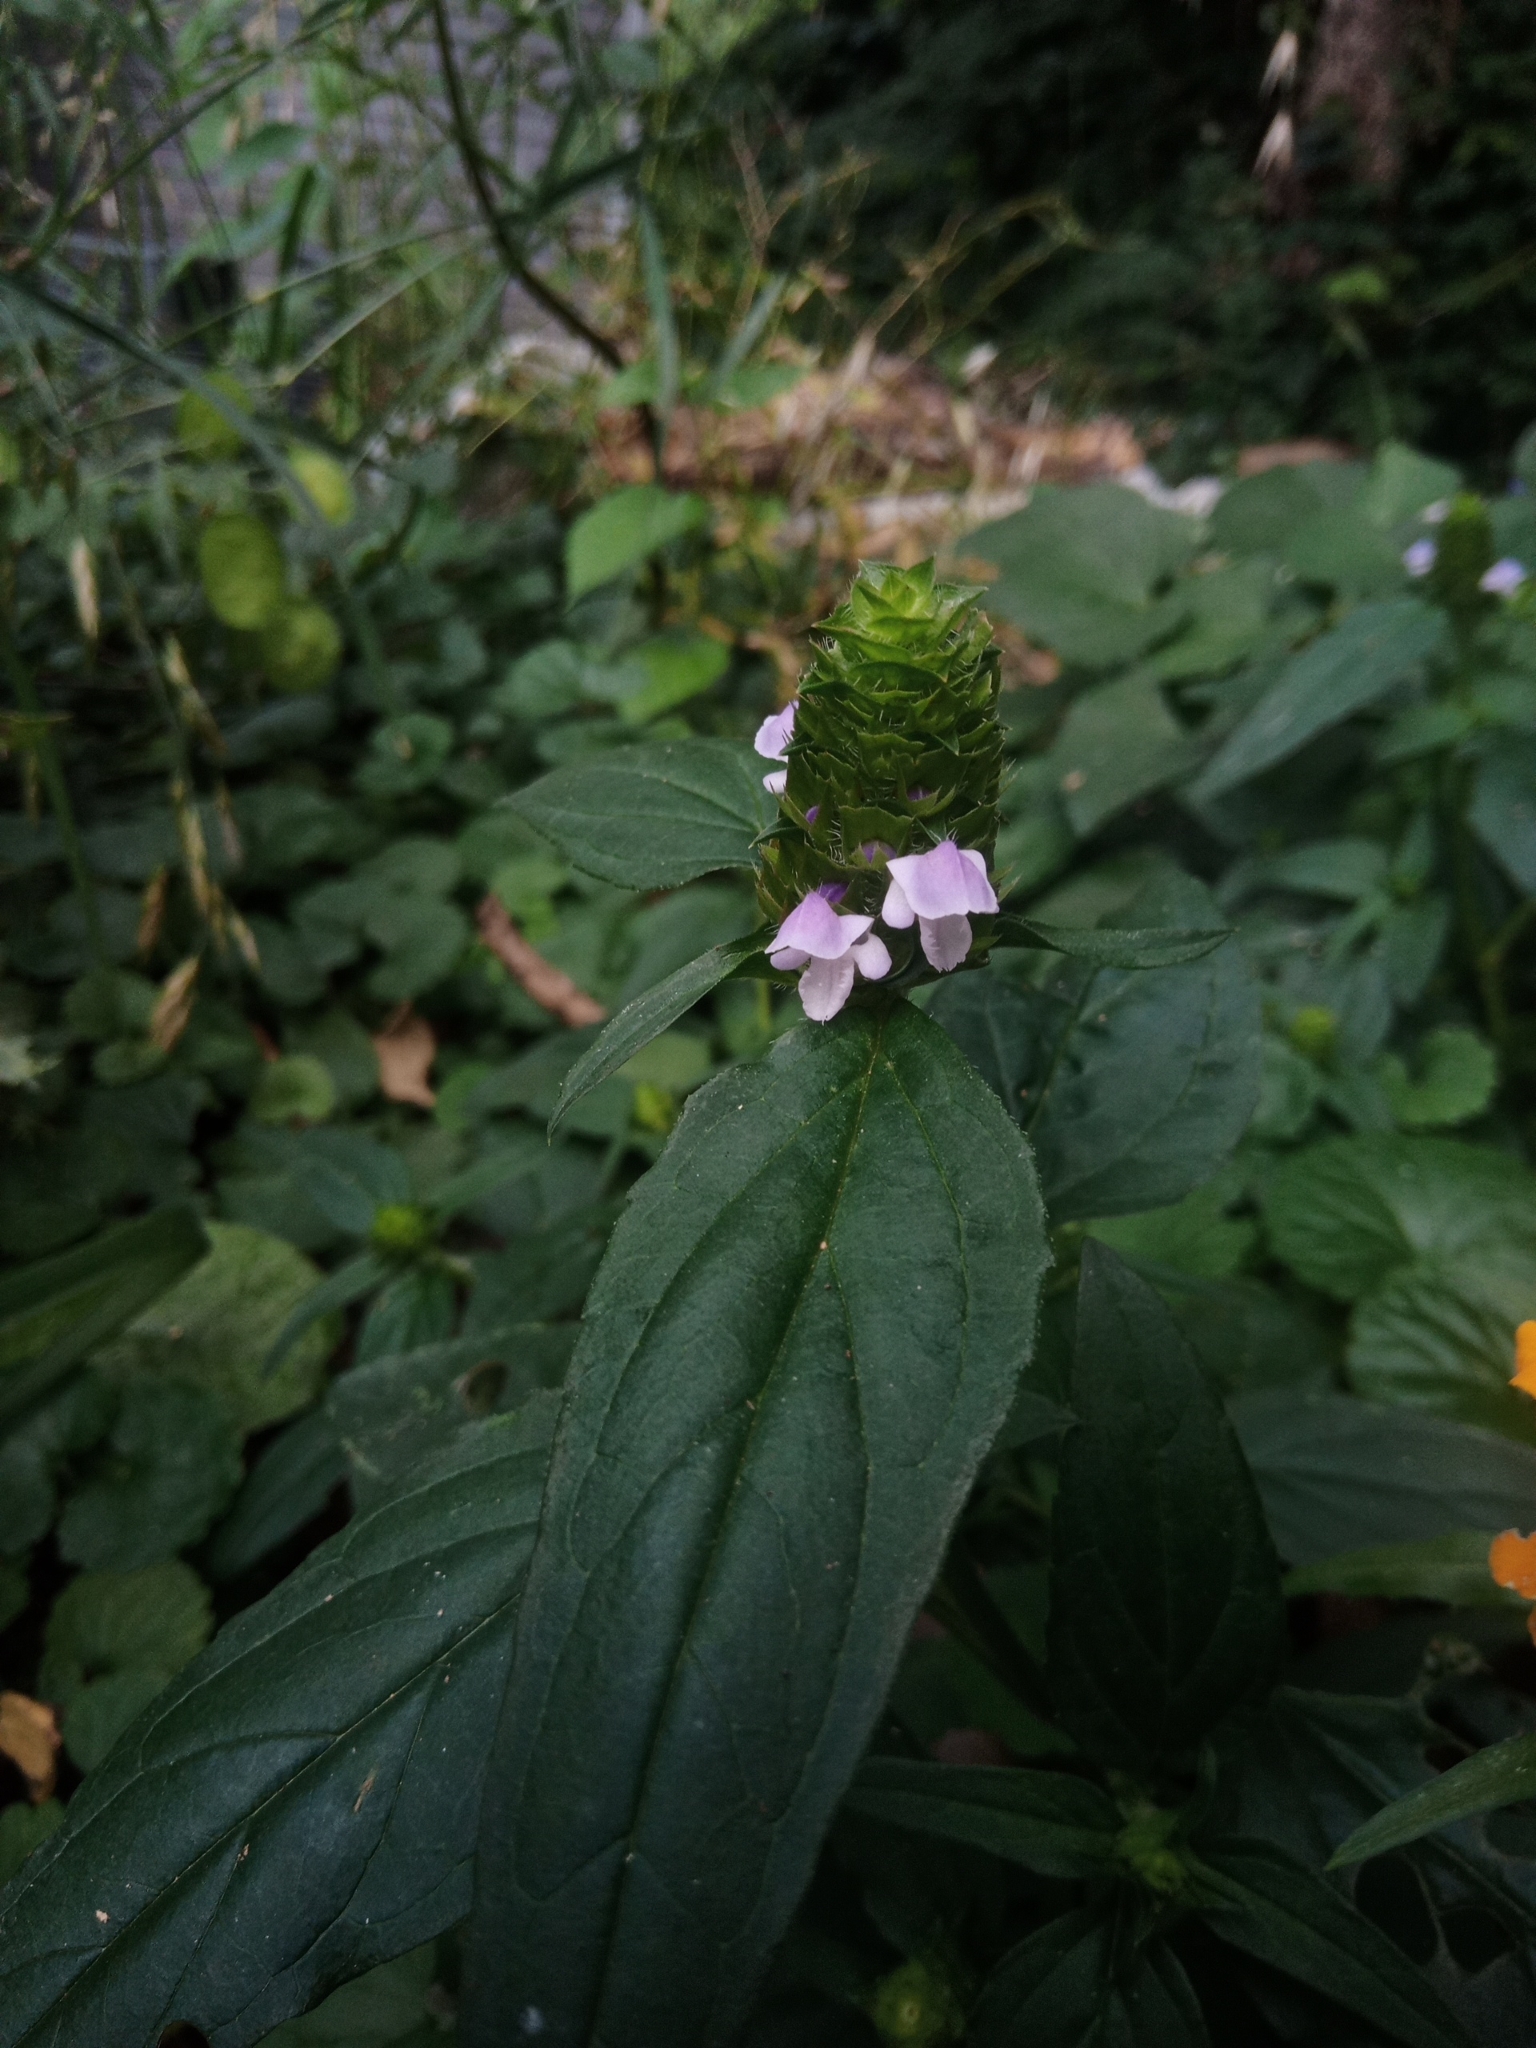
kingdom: Plantae
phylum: Tracheophyta
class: Magnoliopsida
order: Lamiales
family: Lamiaceae
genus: Prunella
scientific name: Prunella vulgaris
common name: Heal-all
